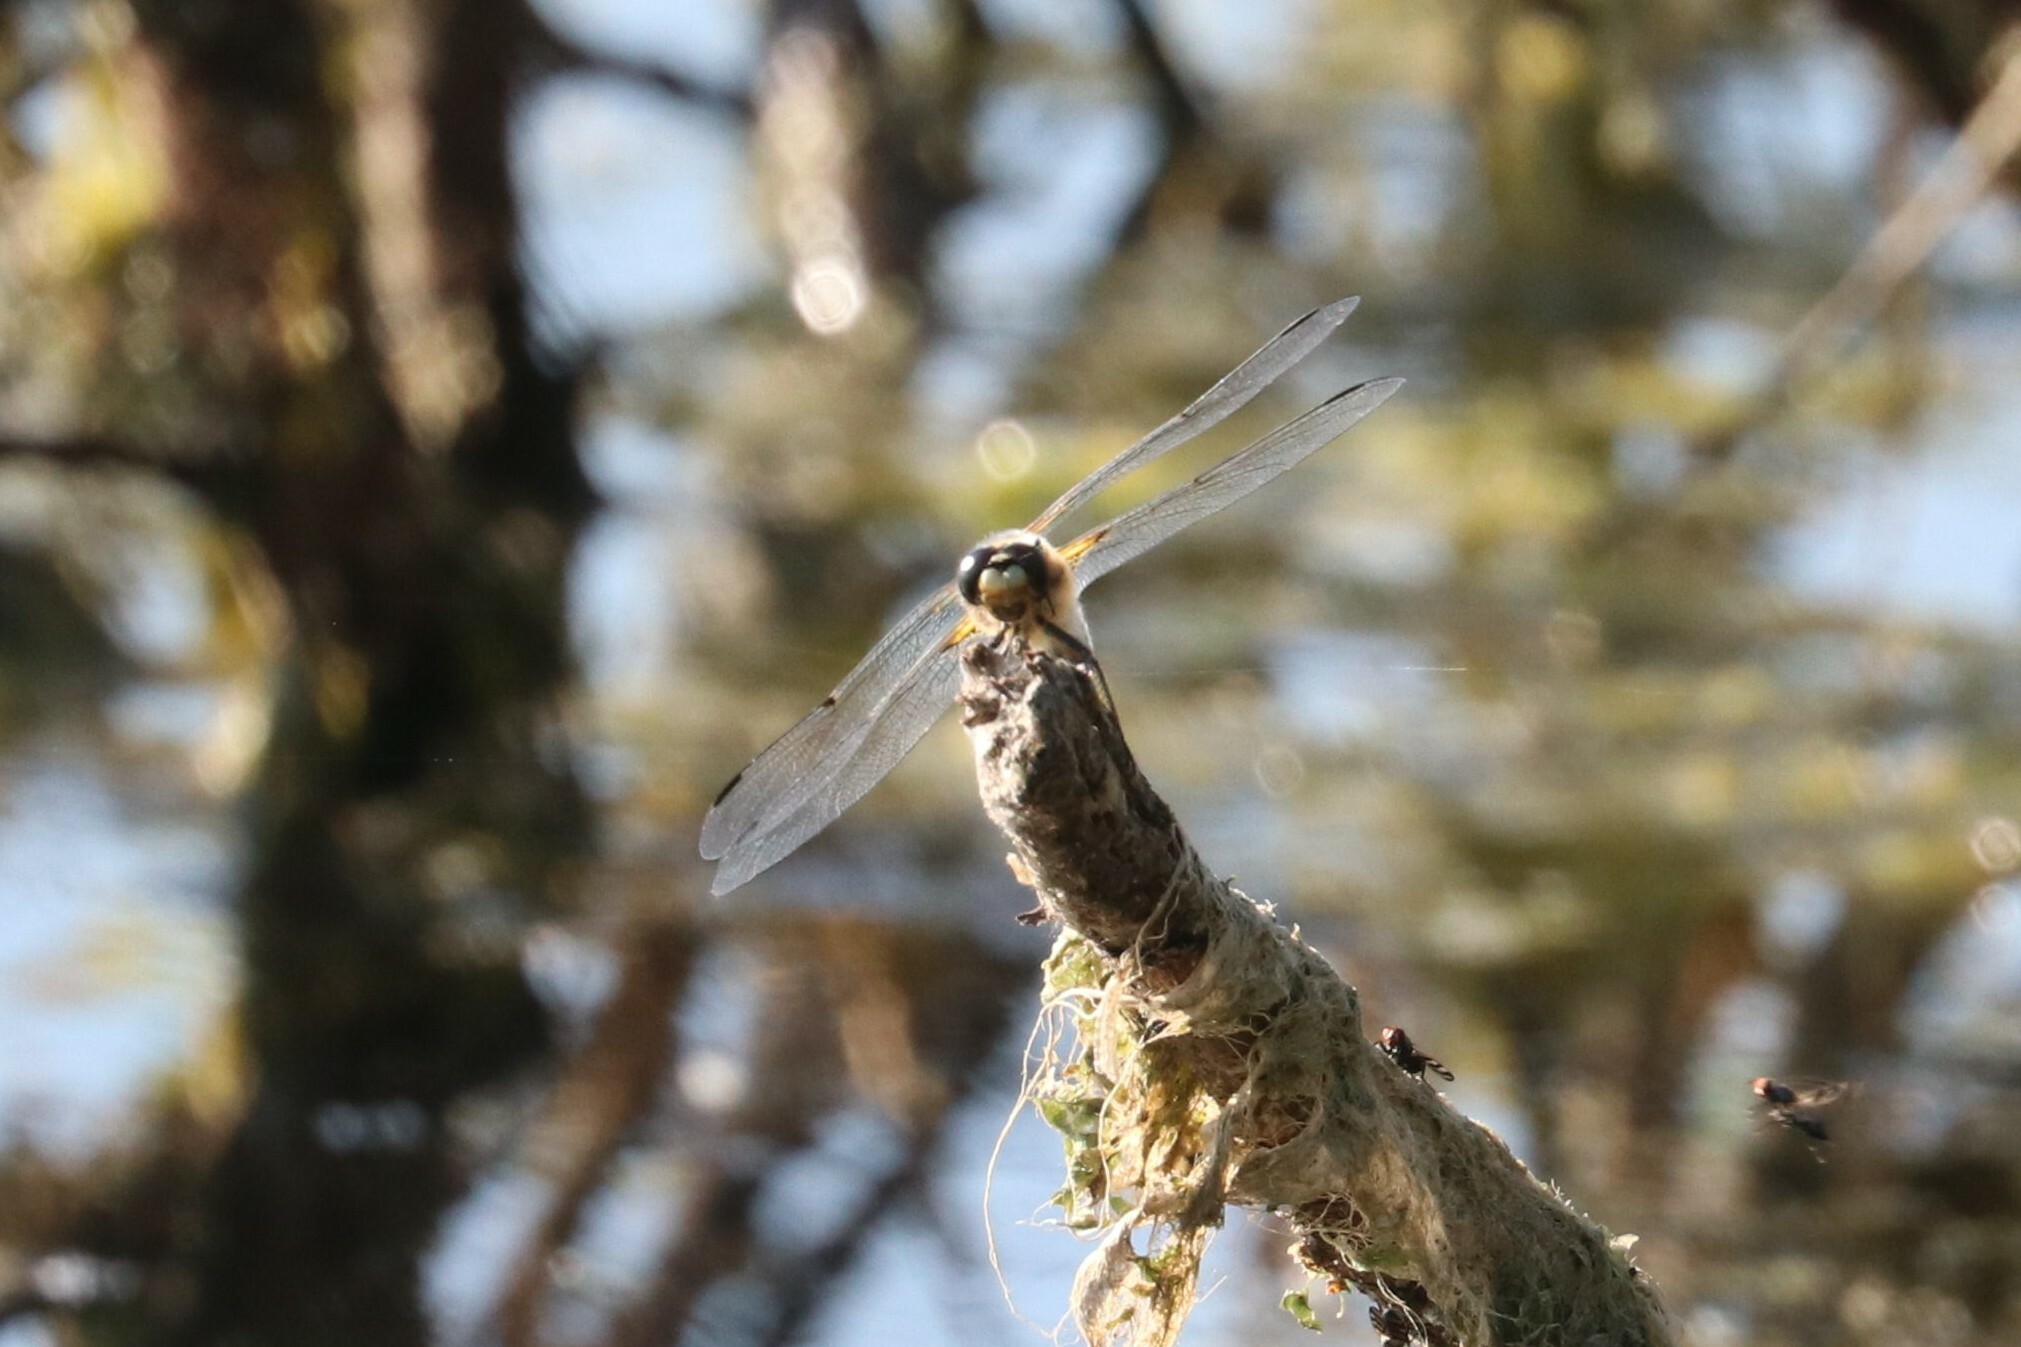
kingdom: Animalia
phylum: Arthropoda
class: Insecta
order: Odonata
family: Libellulidae
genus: Libellula
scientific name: Libellula quadrimaculata
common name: Four-spotted chaser
